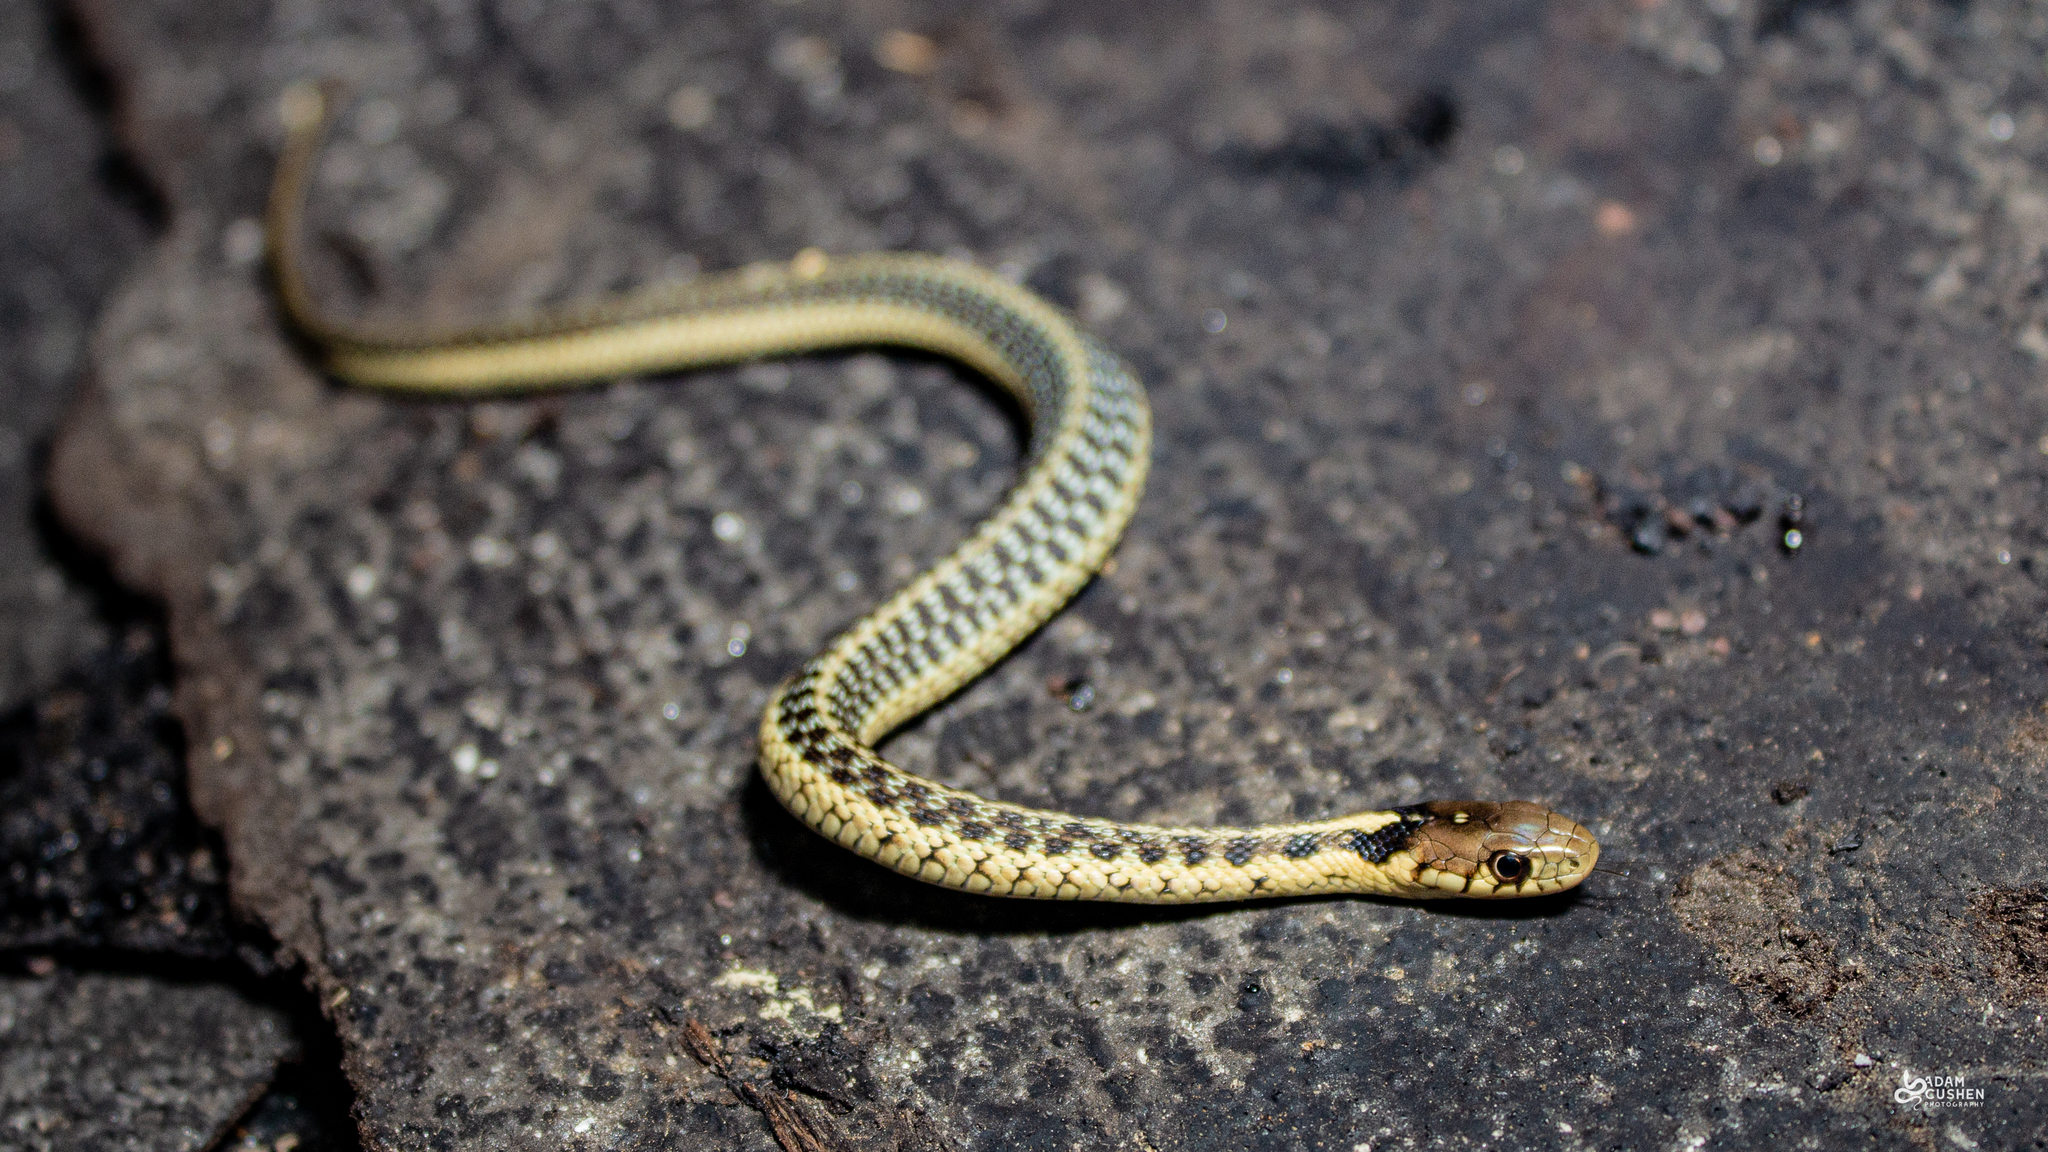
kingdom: Animalia
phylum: Chordata
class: Squamata
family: Colubridae
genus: Thamnophis
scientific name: Thamnophis sirtalis
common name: Common garter snake
